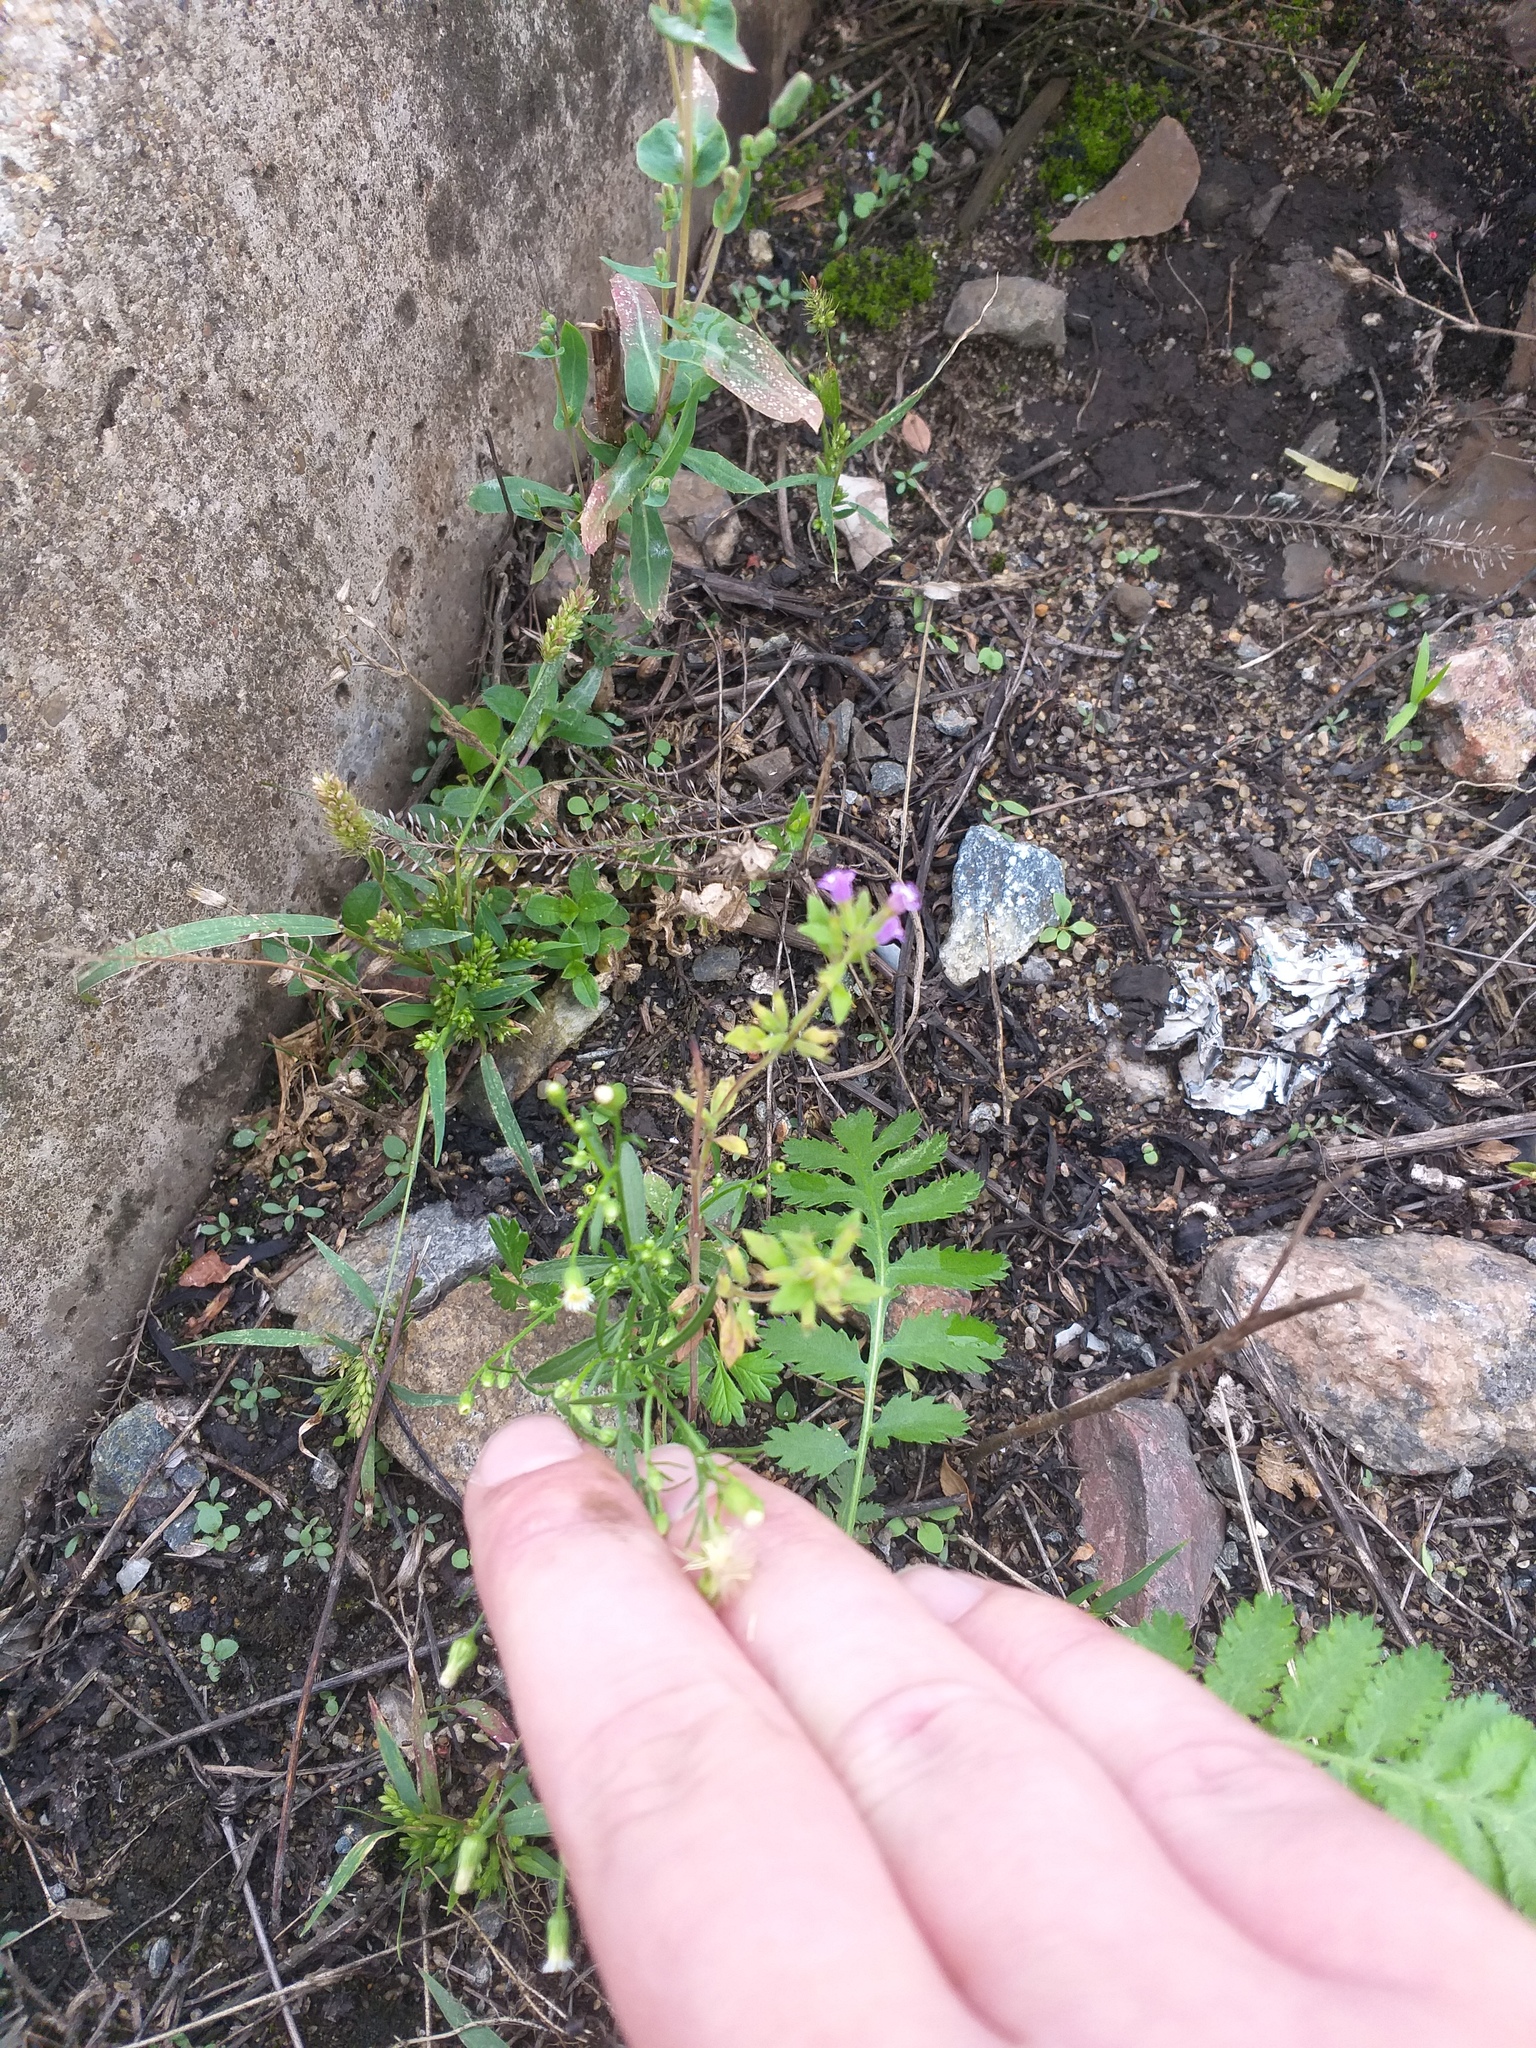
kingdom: Plantae
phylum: Tracheophyta
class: Magnoliopsida
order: Lamiales
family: Lamiaceae
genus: Clinopodium
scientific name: Clinopodium acinos
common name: Basil thyme
